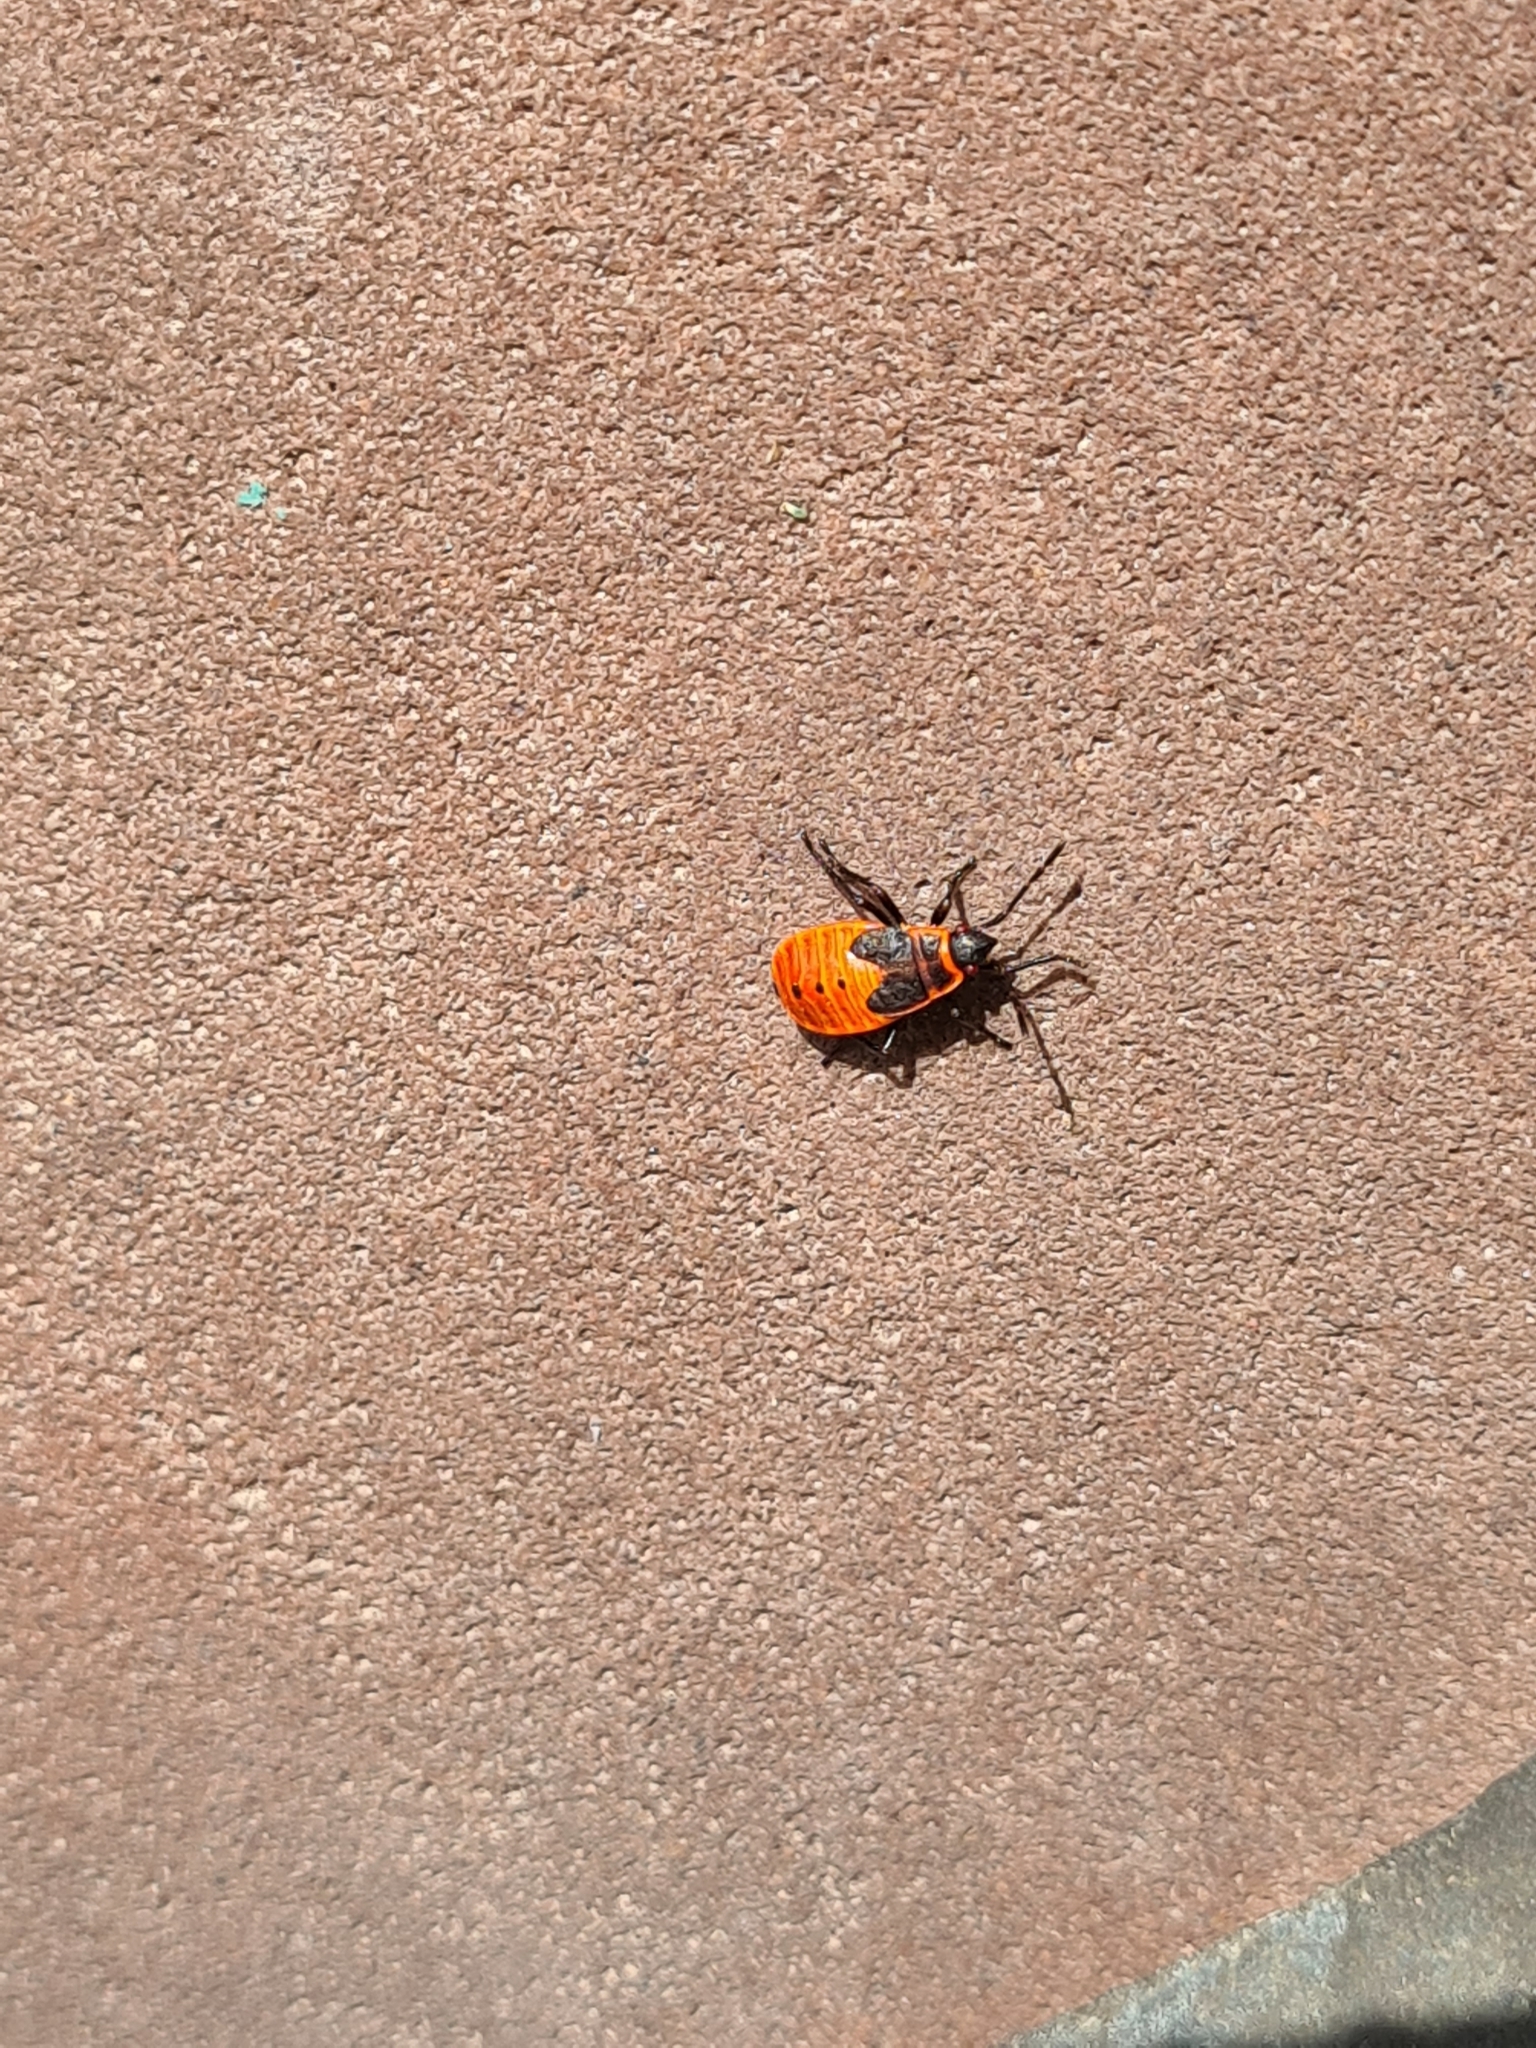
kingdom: Animalia
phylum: Arthropoda
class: Insecta
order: Hemiptera
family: Pyrrhocoridae
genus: Pyrrhocoris
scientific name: Pyrrhocoris apterus
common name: Firebug
